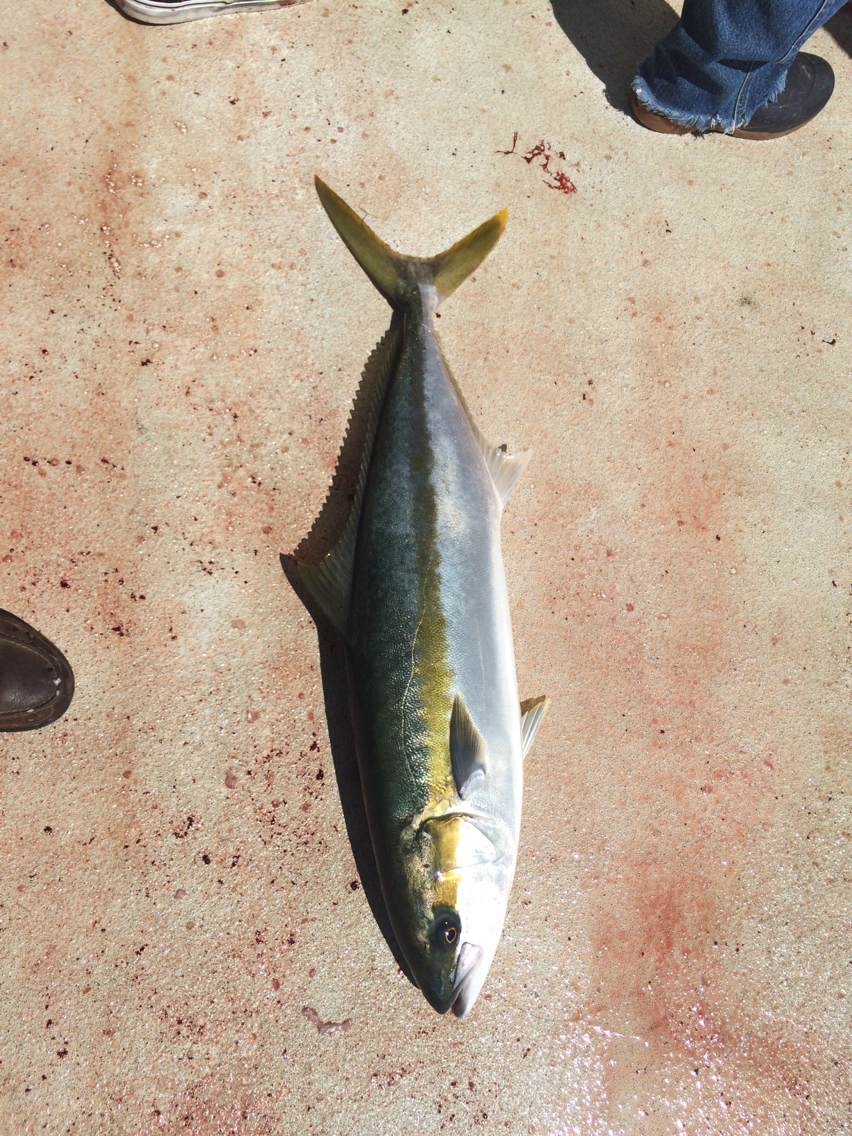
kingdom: Animalia
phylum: Chordata
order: Perciformes
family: Carangidae
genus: Seriola
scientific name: Seriola lalandi
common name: Yellowtail kingfish
